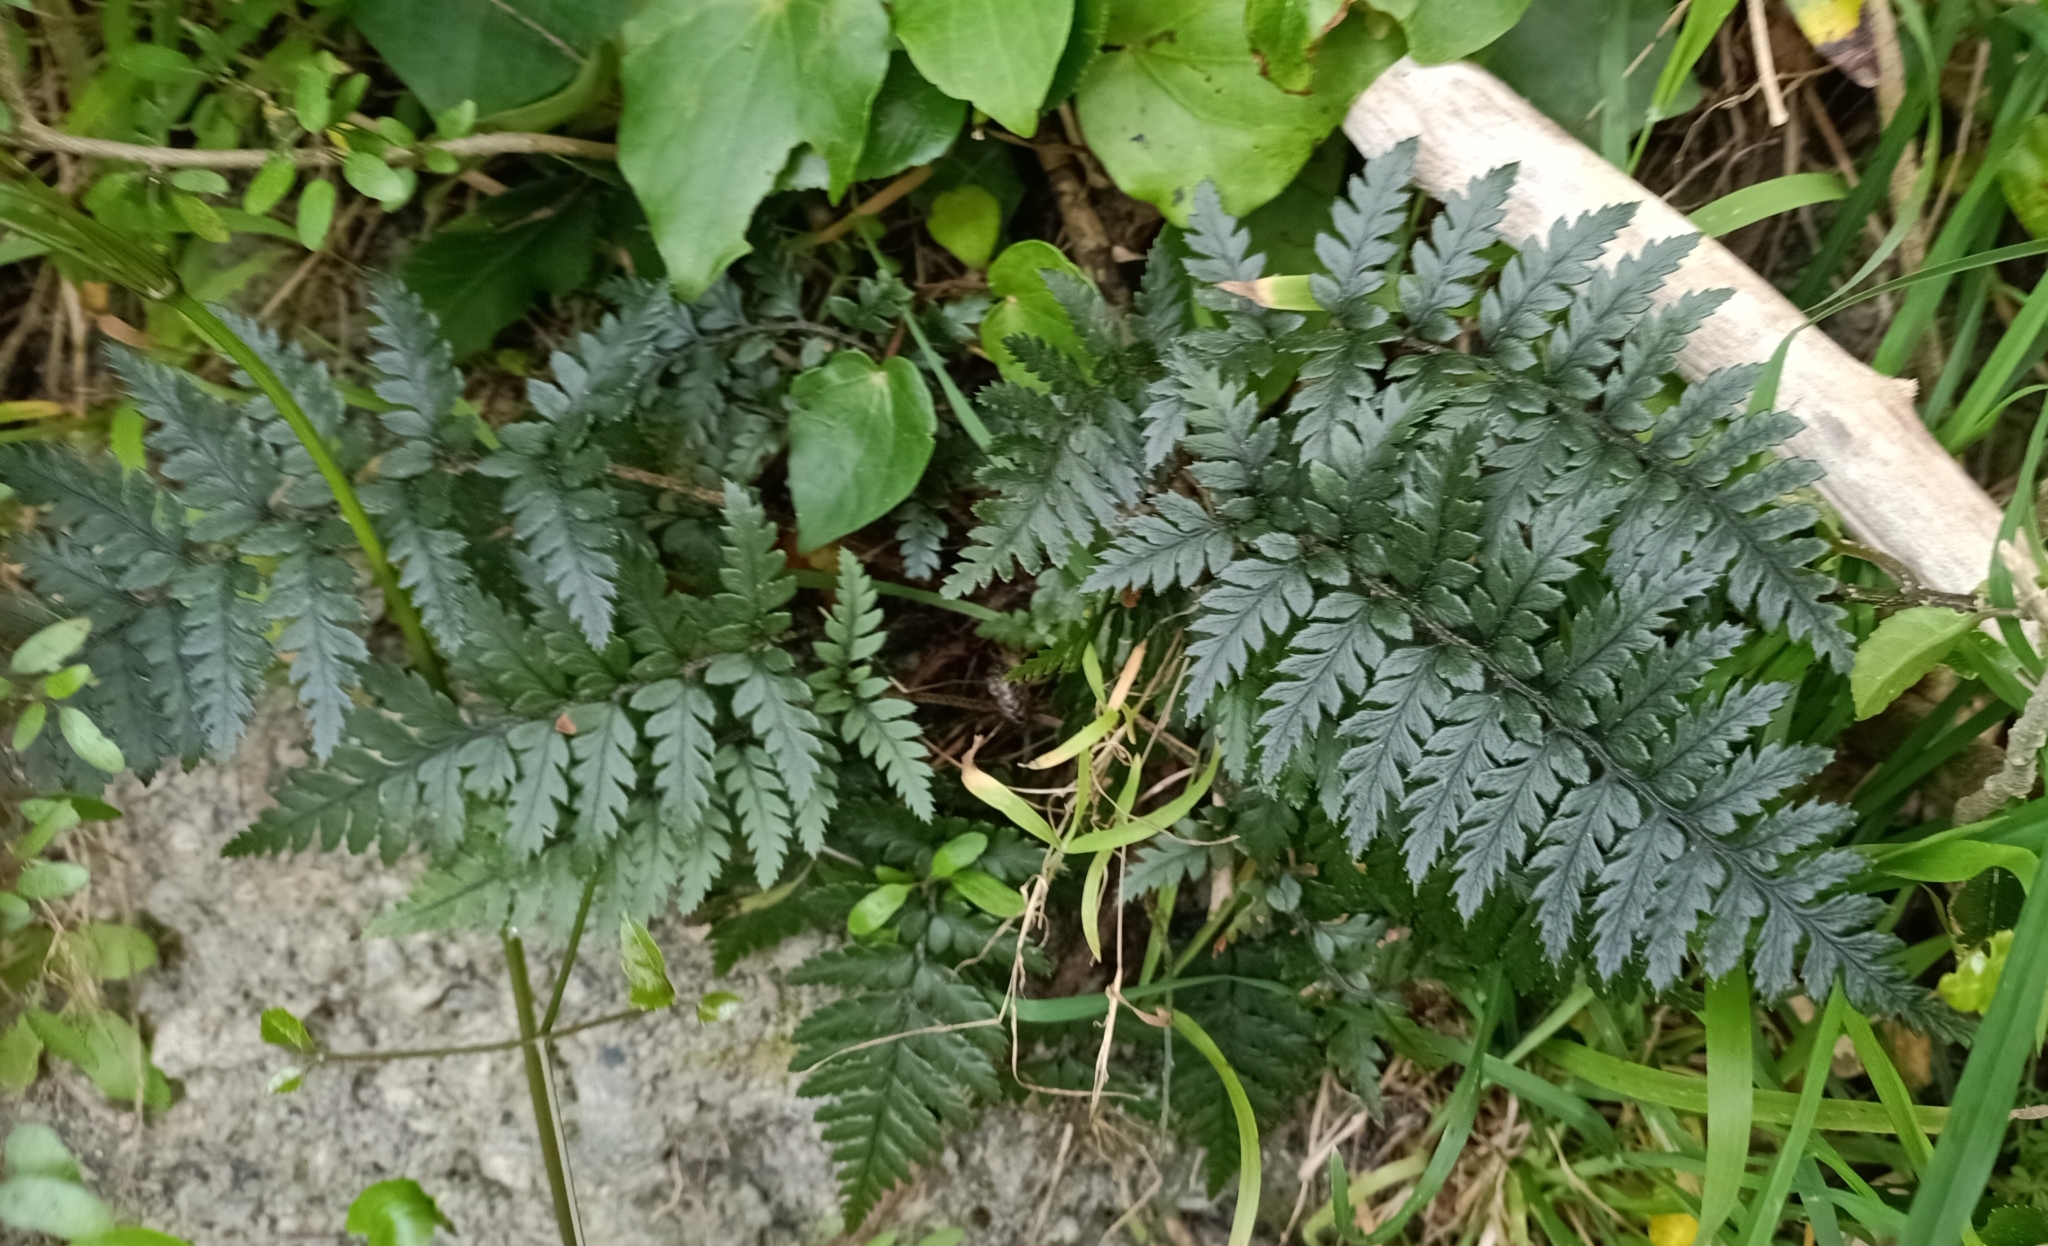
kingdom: Plantae
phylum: Tracheophyta
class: Polypodiopsida
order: Polypodiales
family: Dryopteridaceae
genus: Polystichum
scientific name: Polystichum neozelandicum
